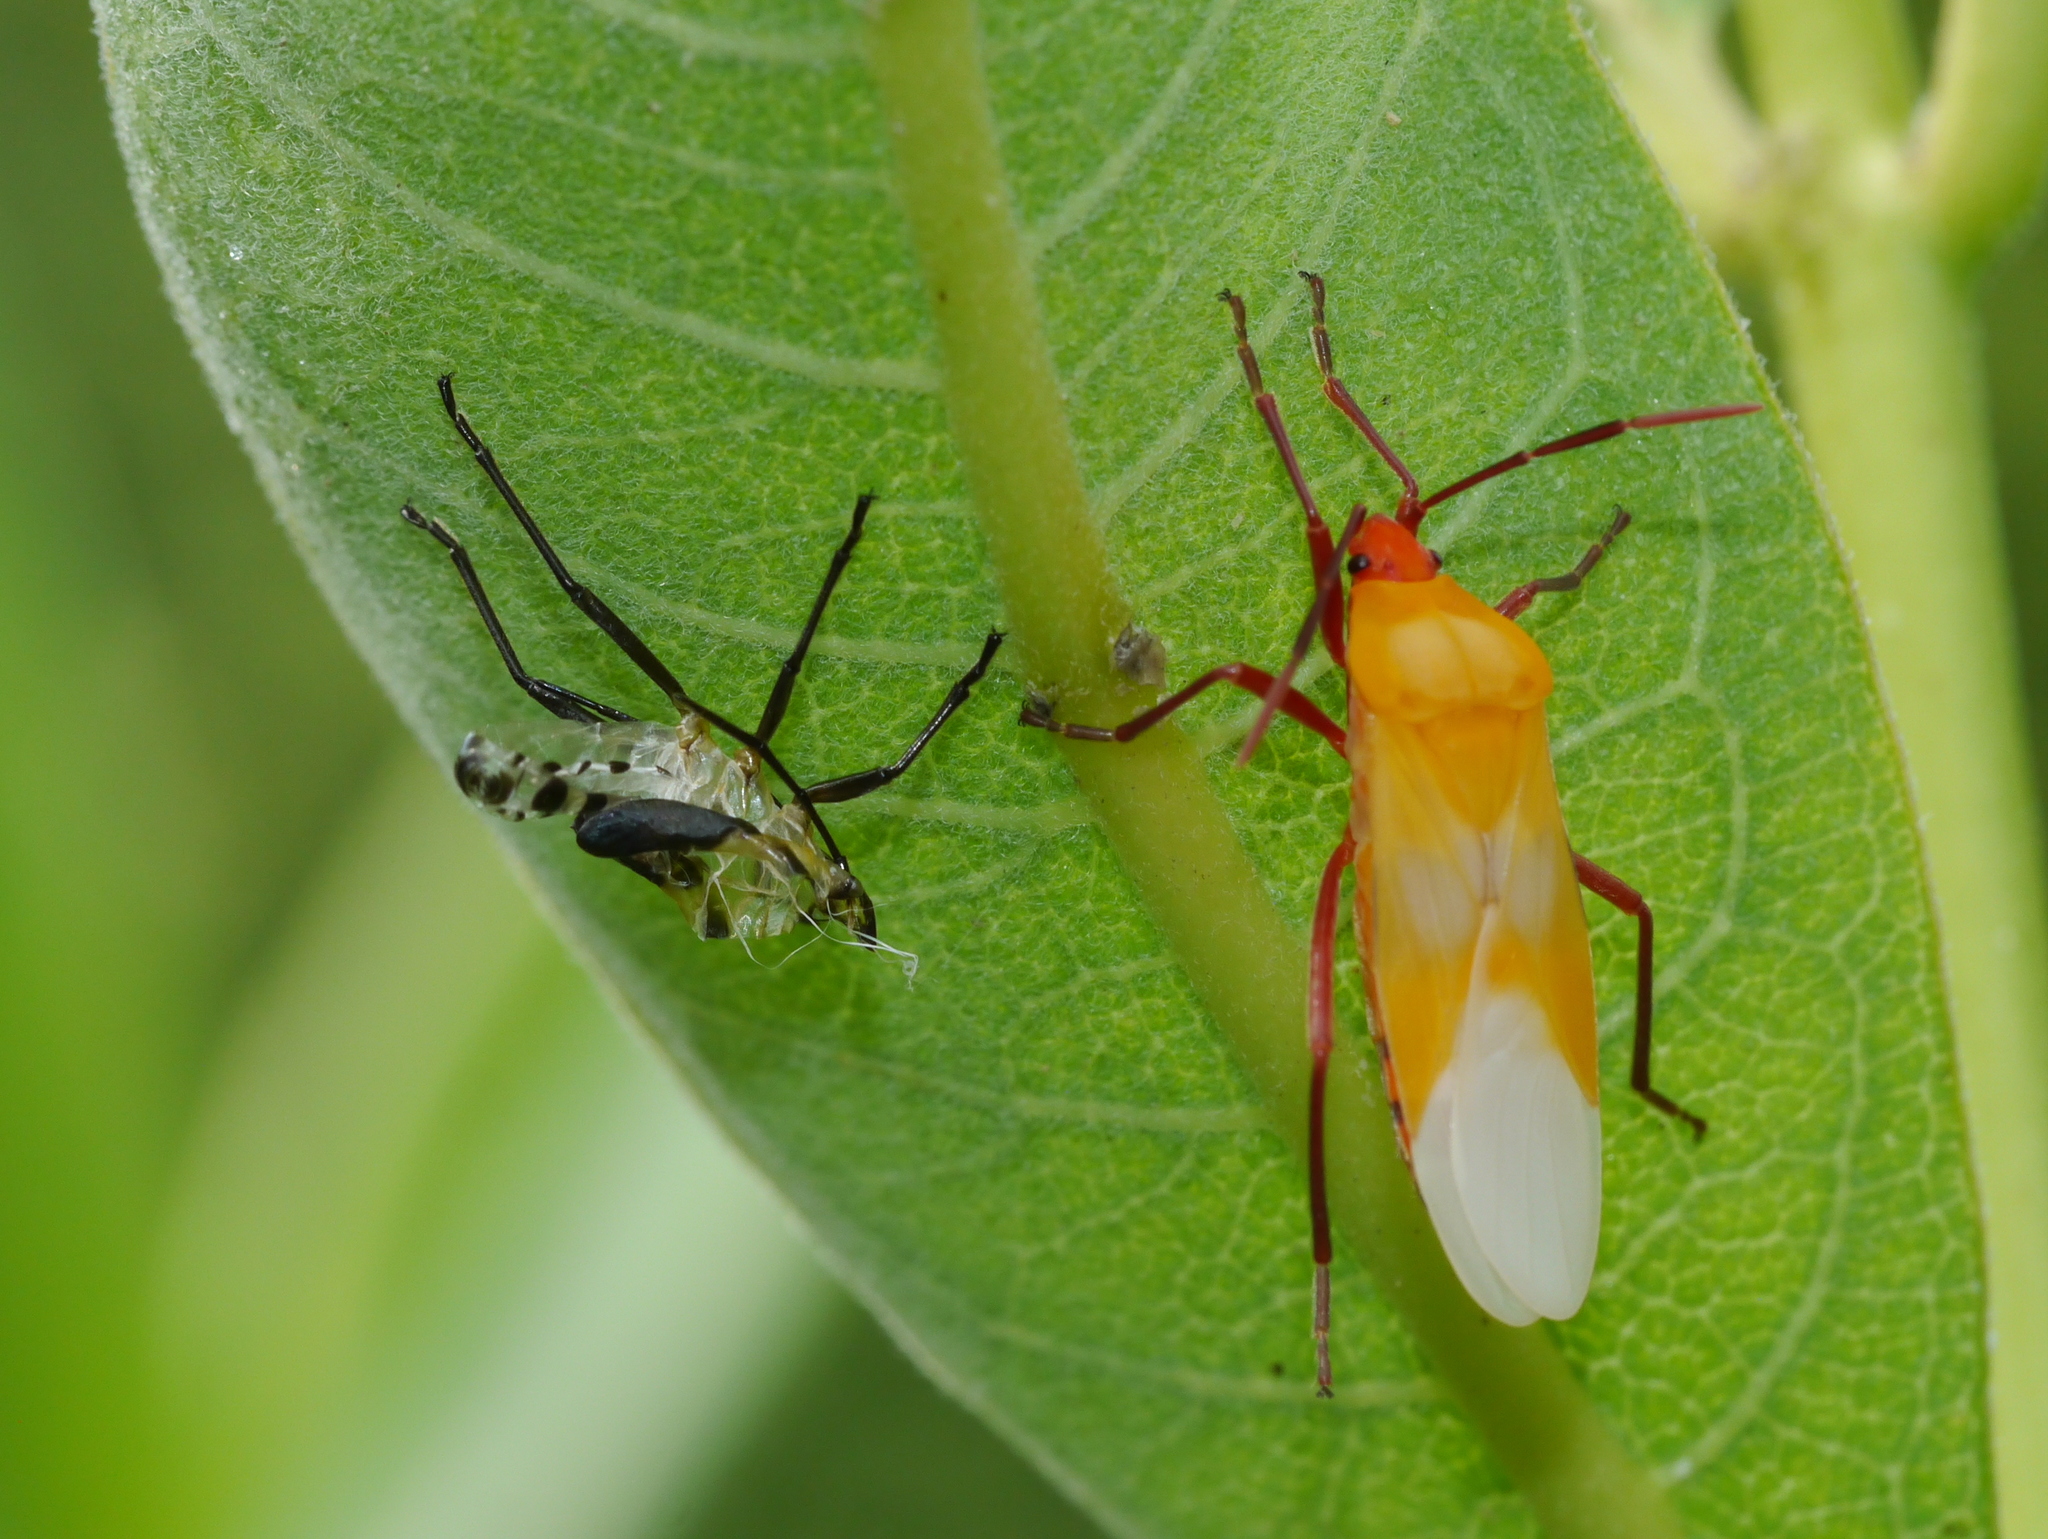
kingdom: Animalia
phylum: Arthropoda
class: Insecta
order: Hemiptera
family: Lygaeidae
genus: Oncopeltus
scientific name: Oncopeltus fasciatus
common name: Large milkweed bug
